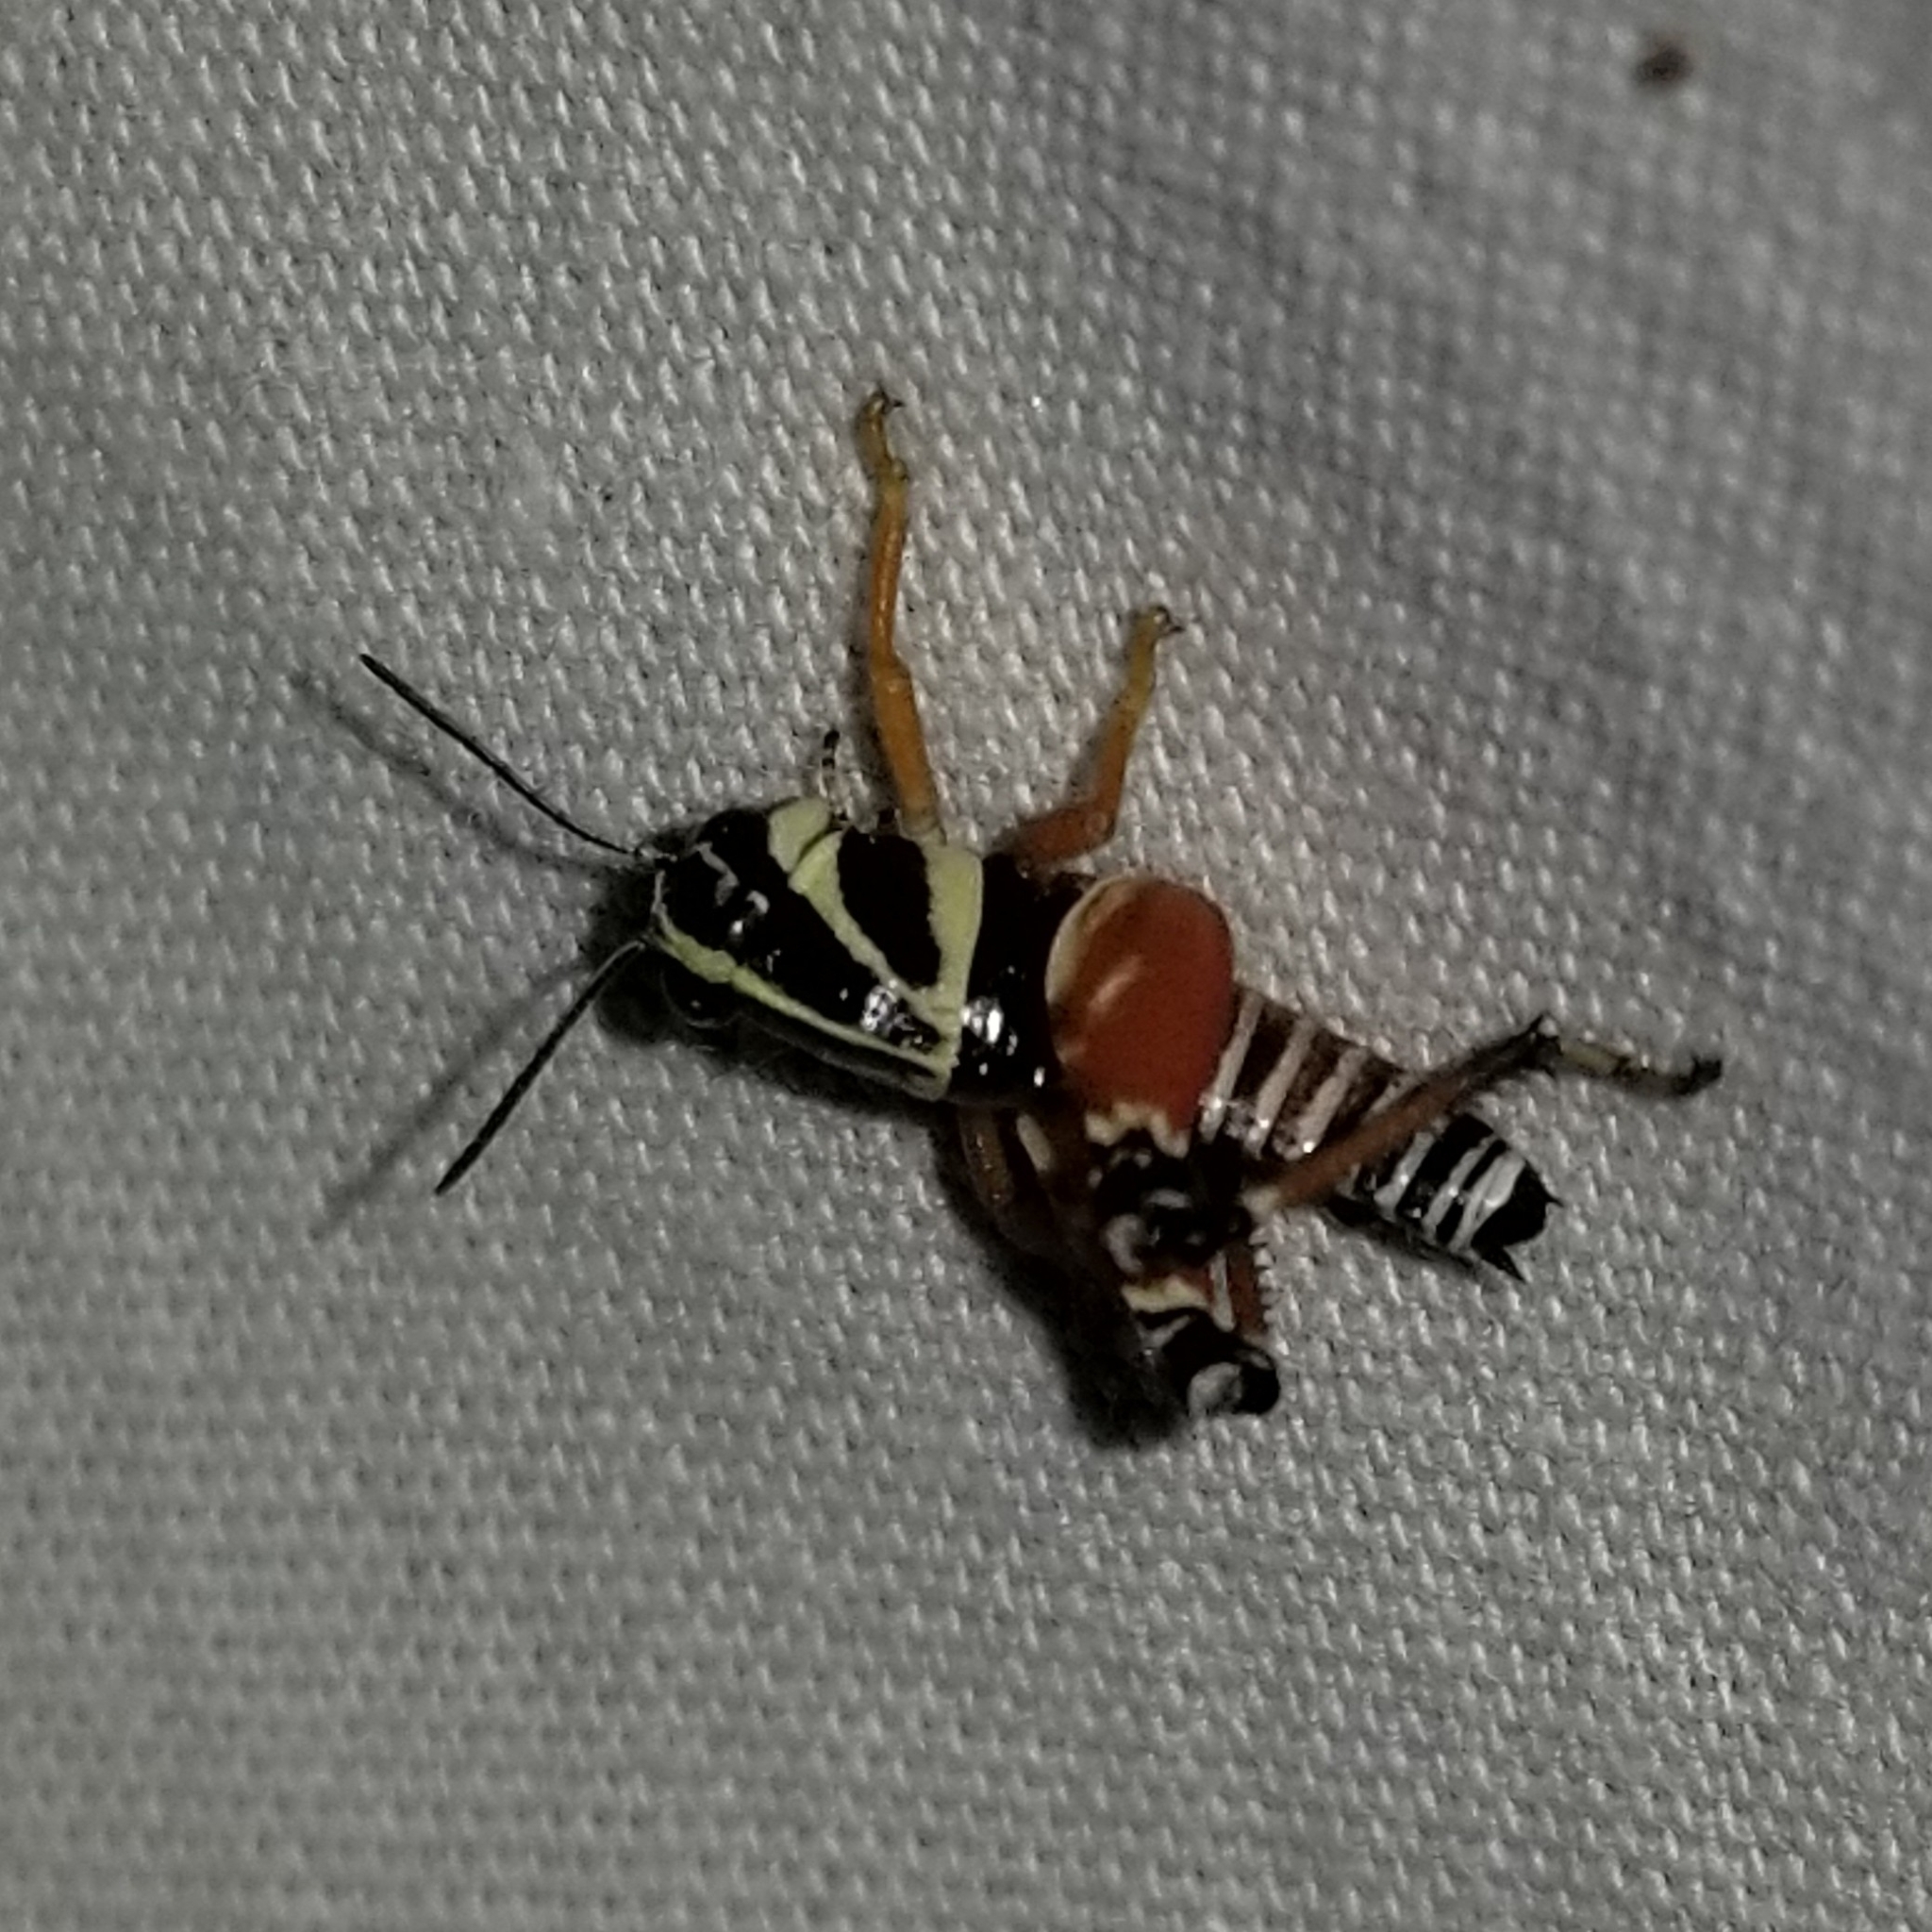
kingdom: Animalia
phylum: Arthropoda
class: Insecta
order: Orthoptera
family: Acrididae
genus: Aidemona
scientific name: Aidemona azteca
